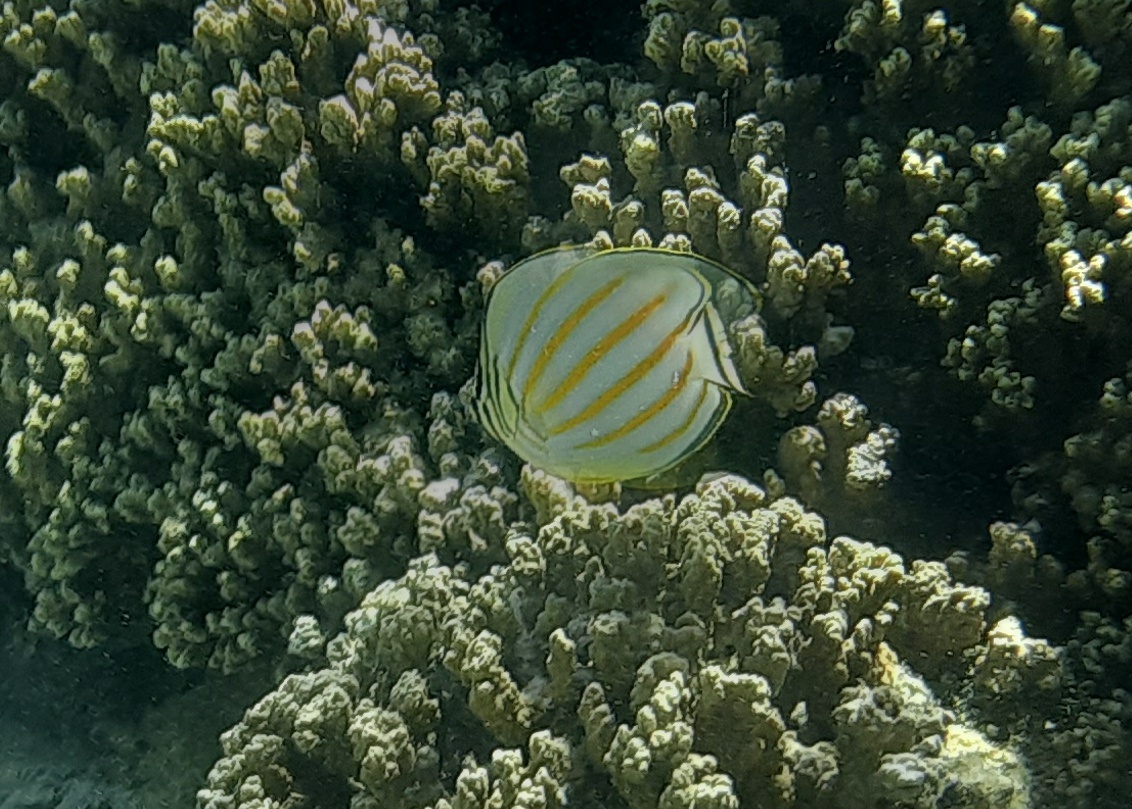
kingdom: Animalia
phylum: Chordata
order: Perciformes
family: Chaetodontidae
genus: Chaetodon
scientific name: Chaetodon ornatissimus
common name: Ornate butterflyfish
